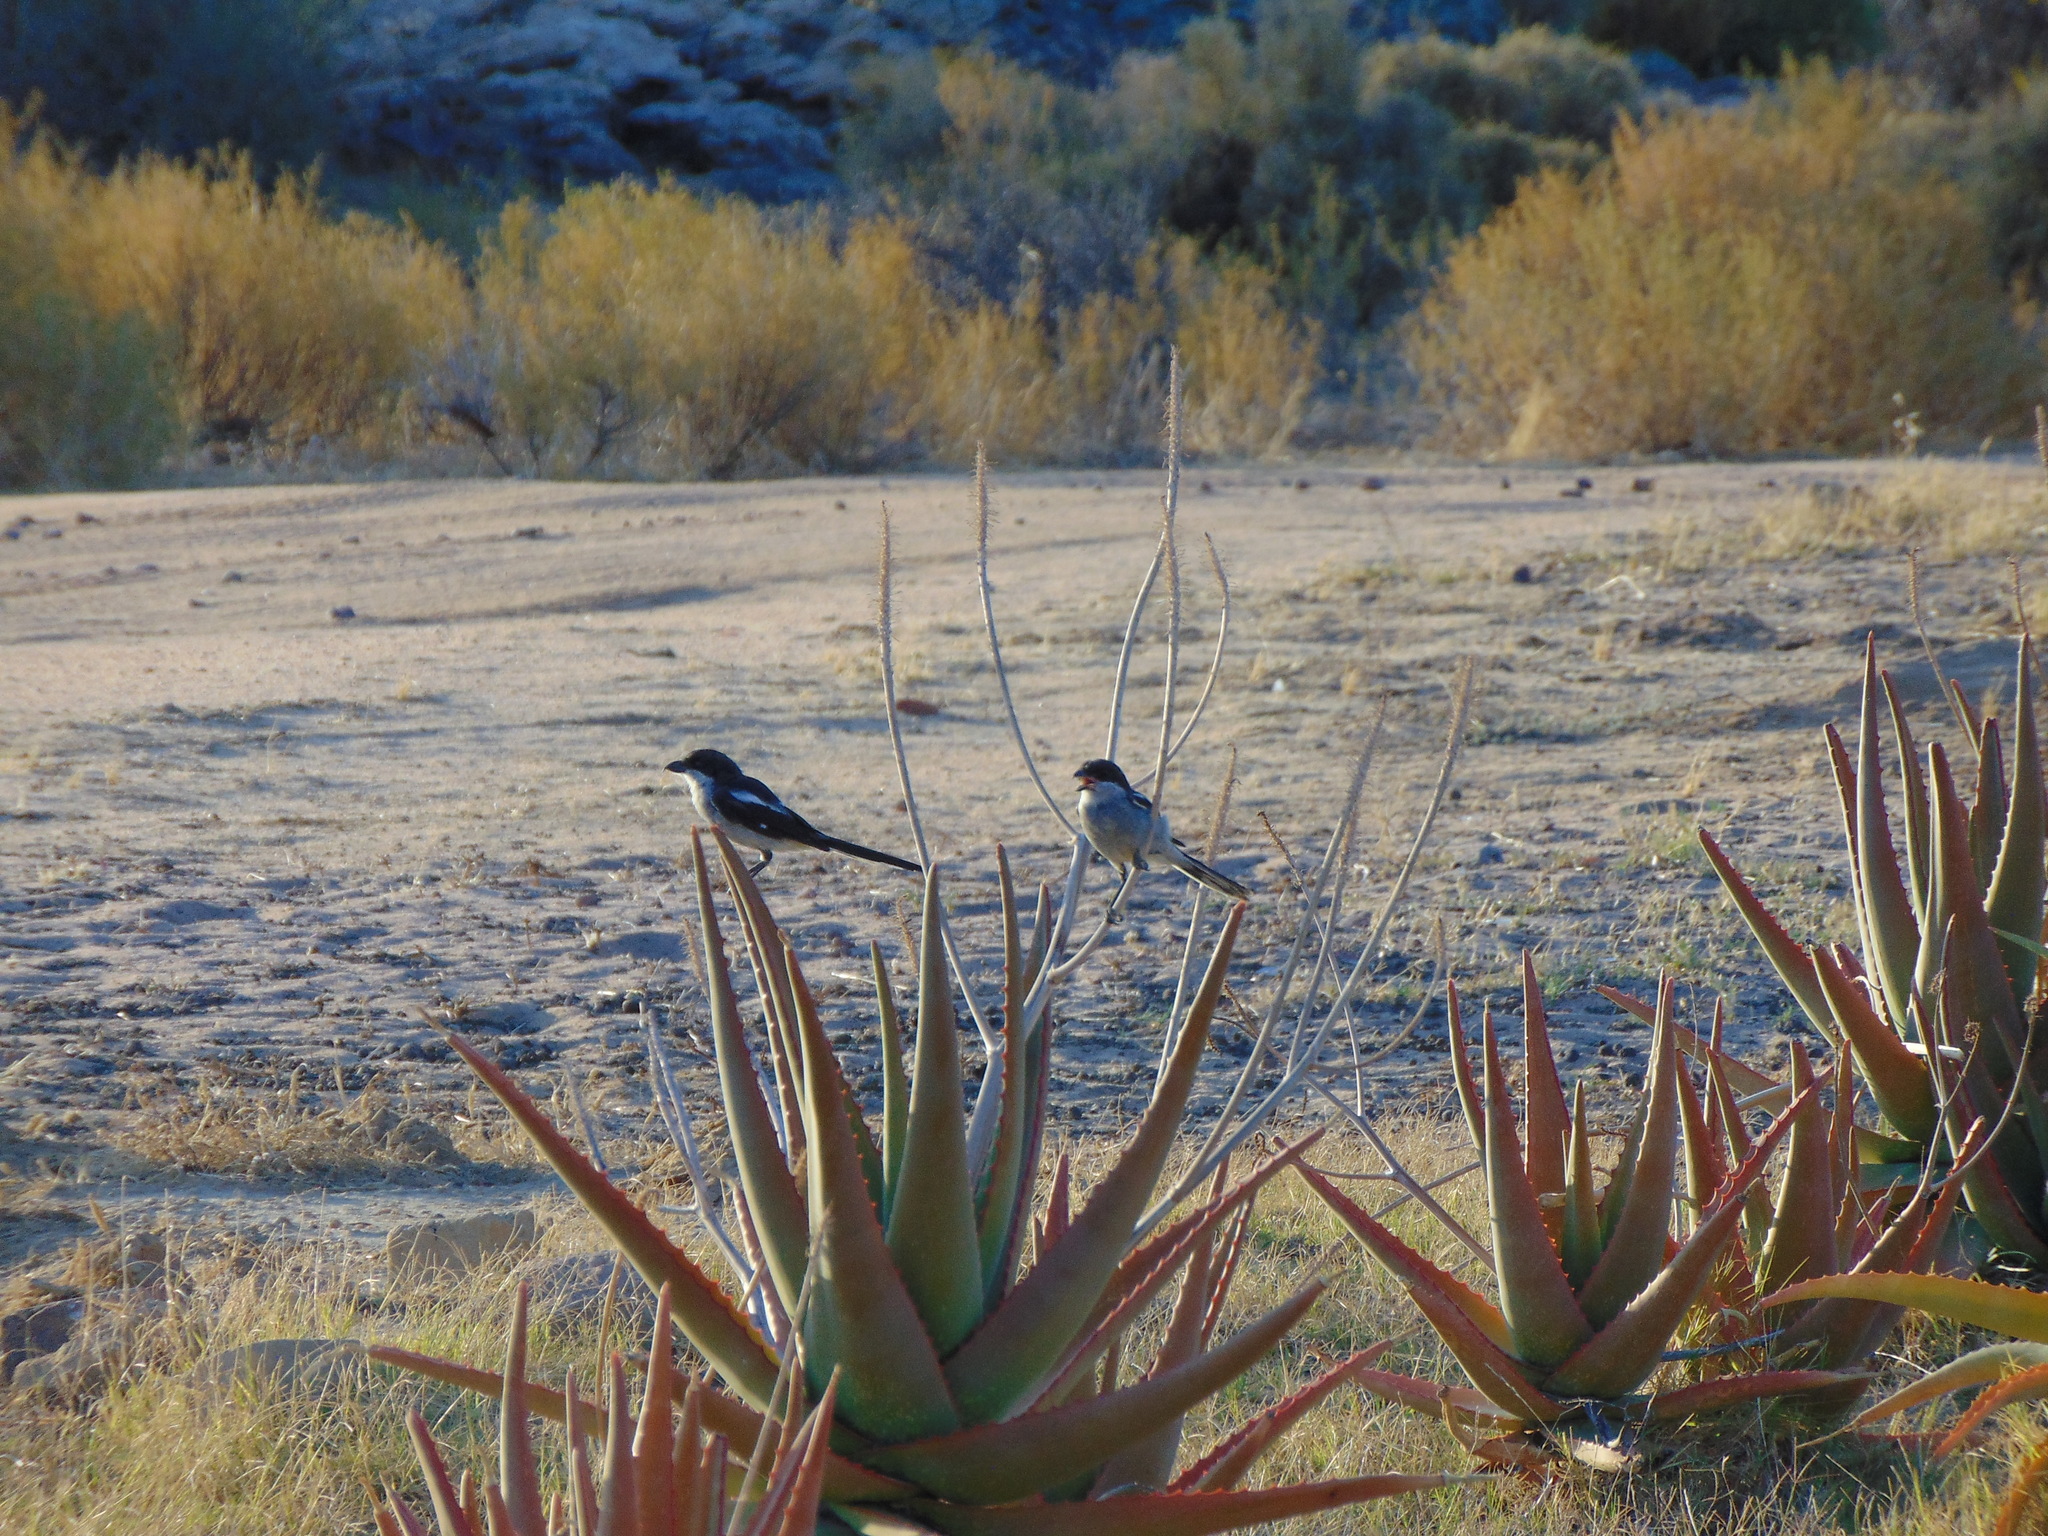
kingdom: Animalia
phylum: Chordata
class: Aves
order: Passeriformes
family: Laniidae
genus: Lanius
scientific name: Lanius collaris
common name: Southern fiscal
